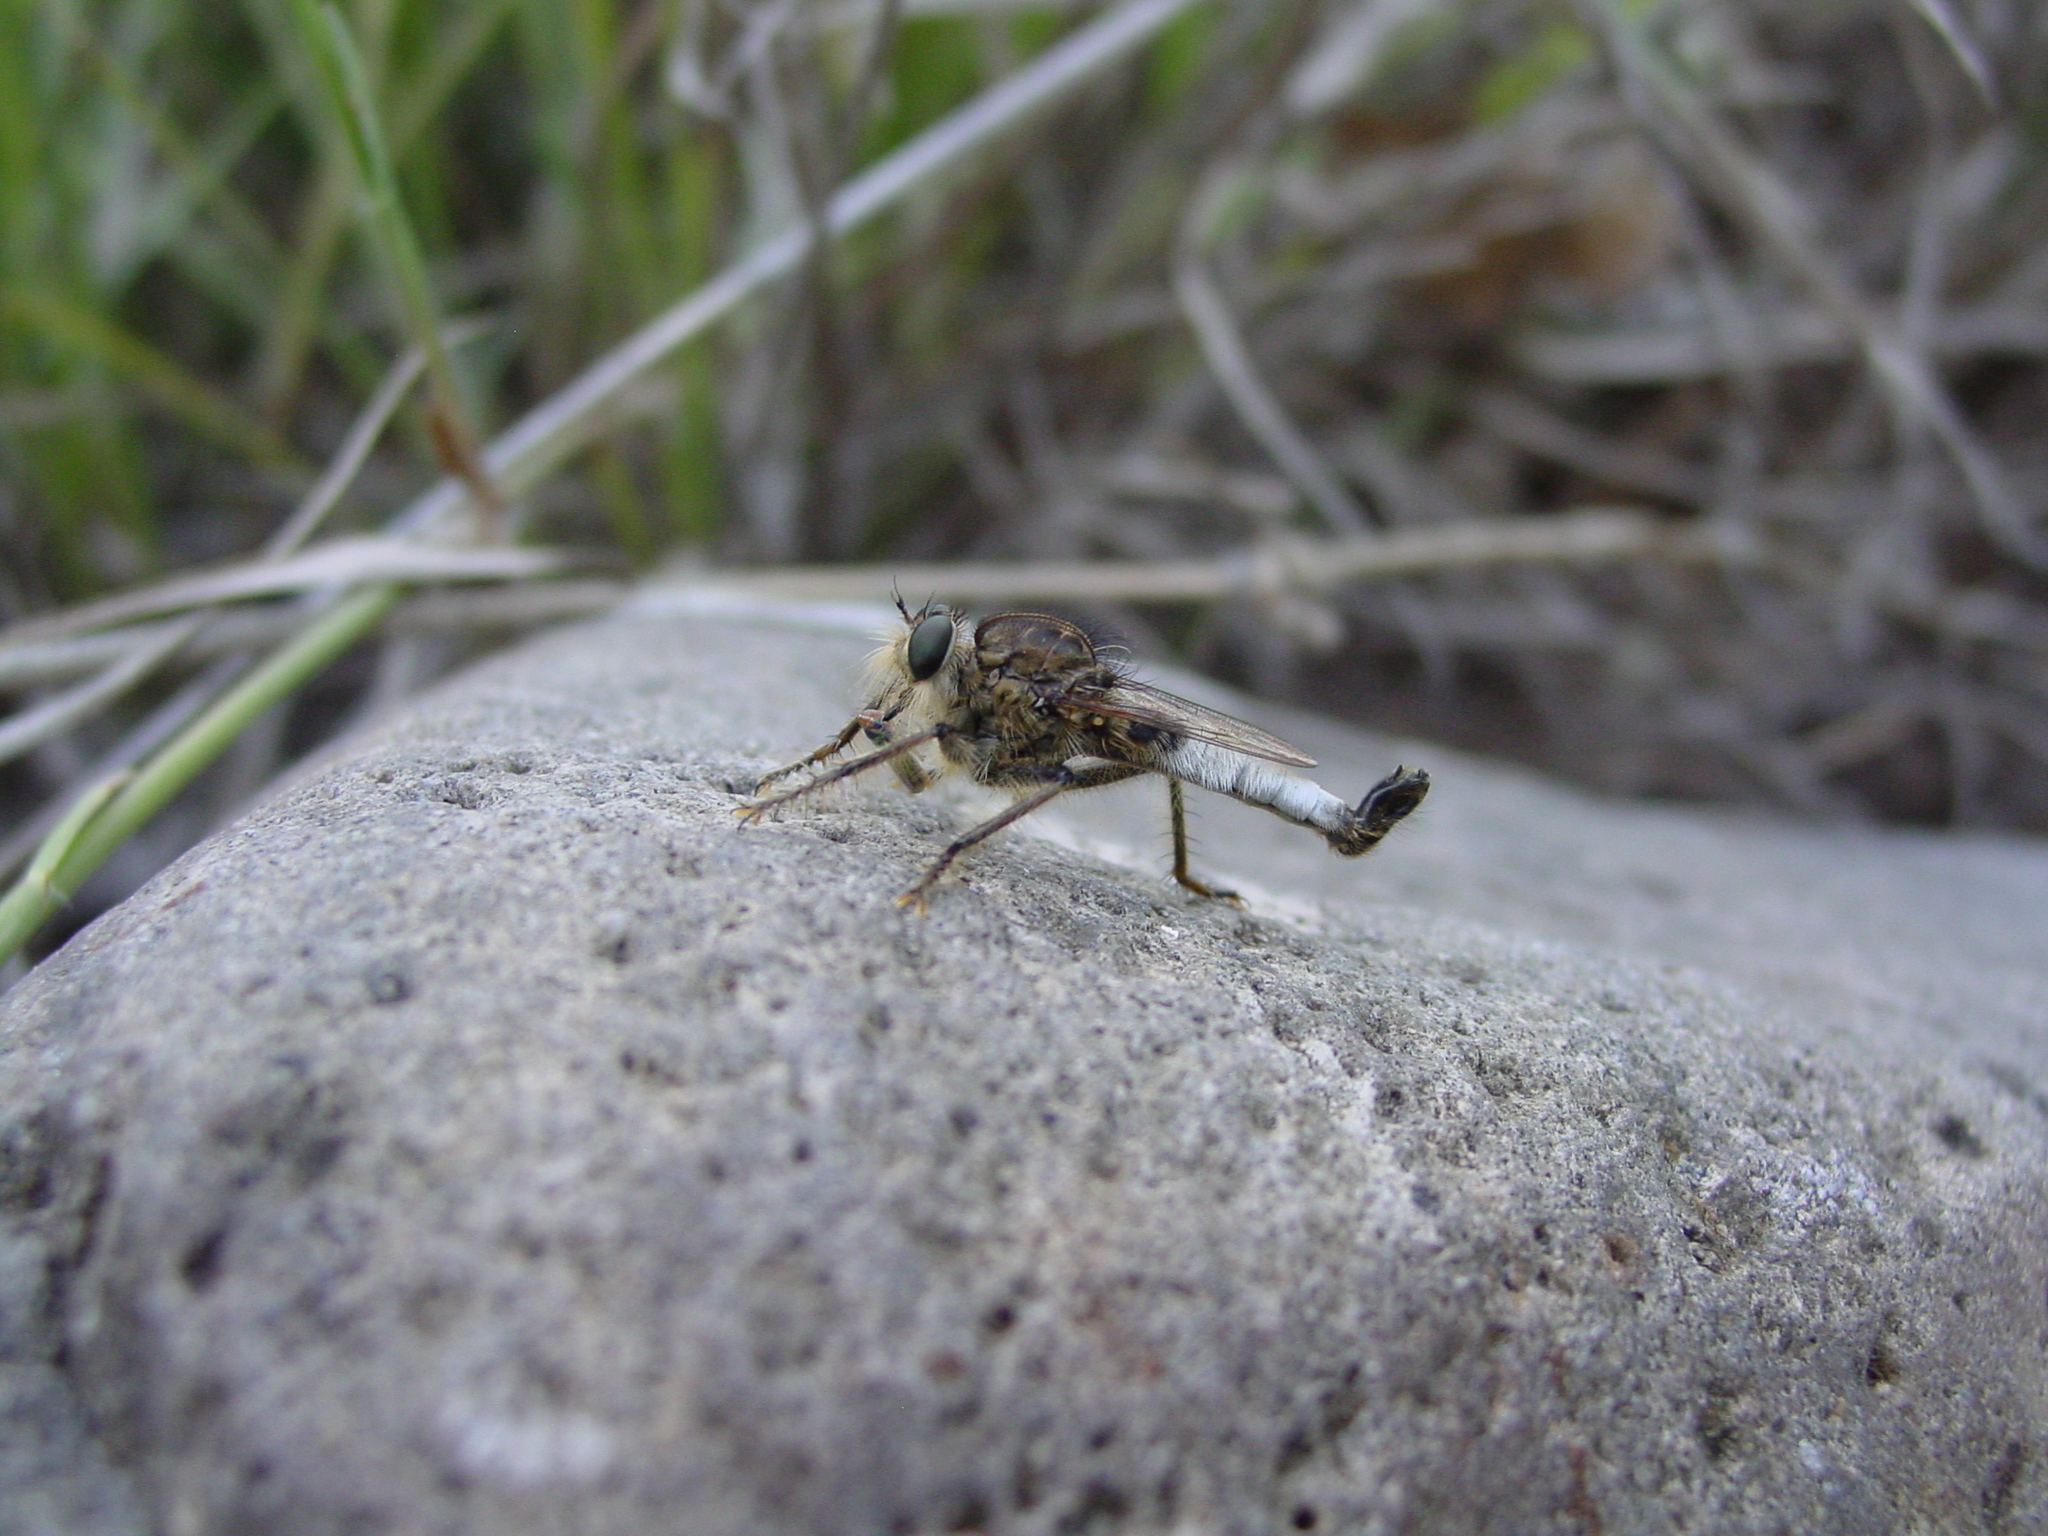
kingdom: Animalia
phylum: Arthropoda
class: Insecta
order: Diptera
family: Asilidae
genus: Efferia
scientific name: Efferia rapax
